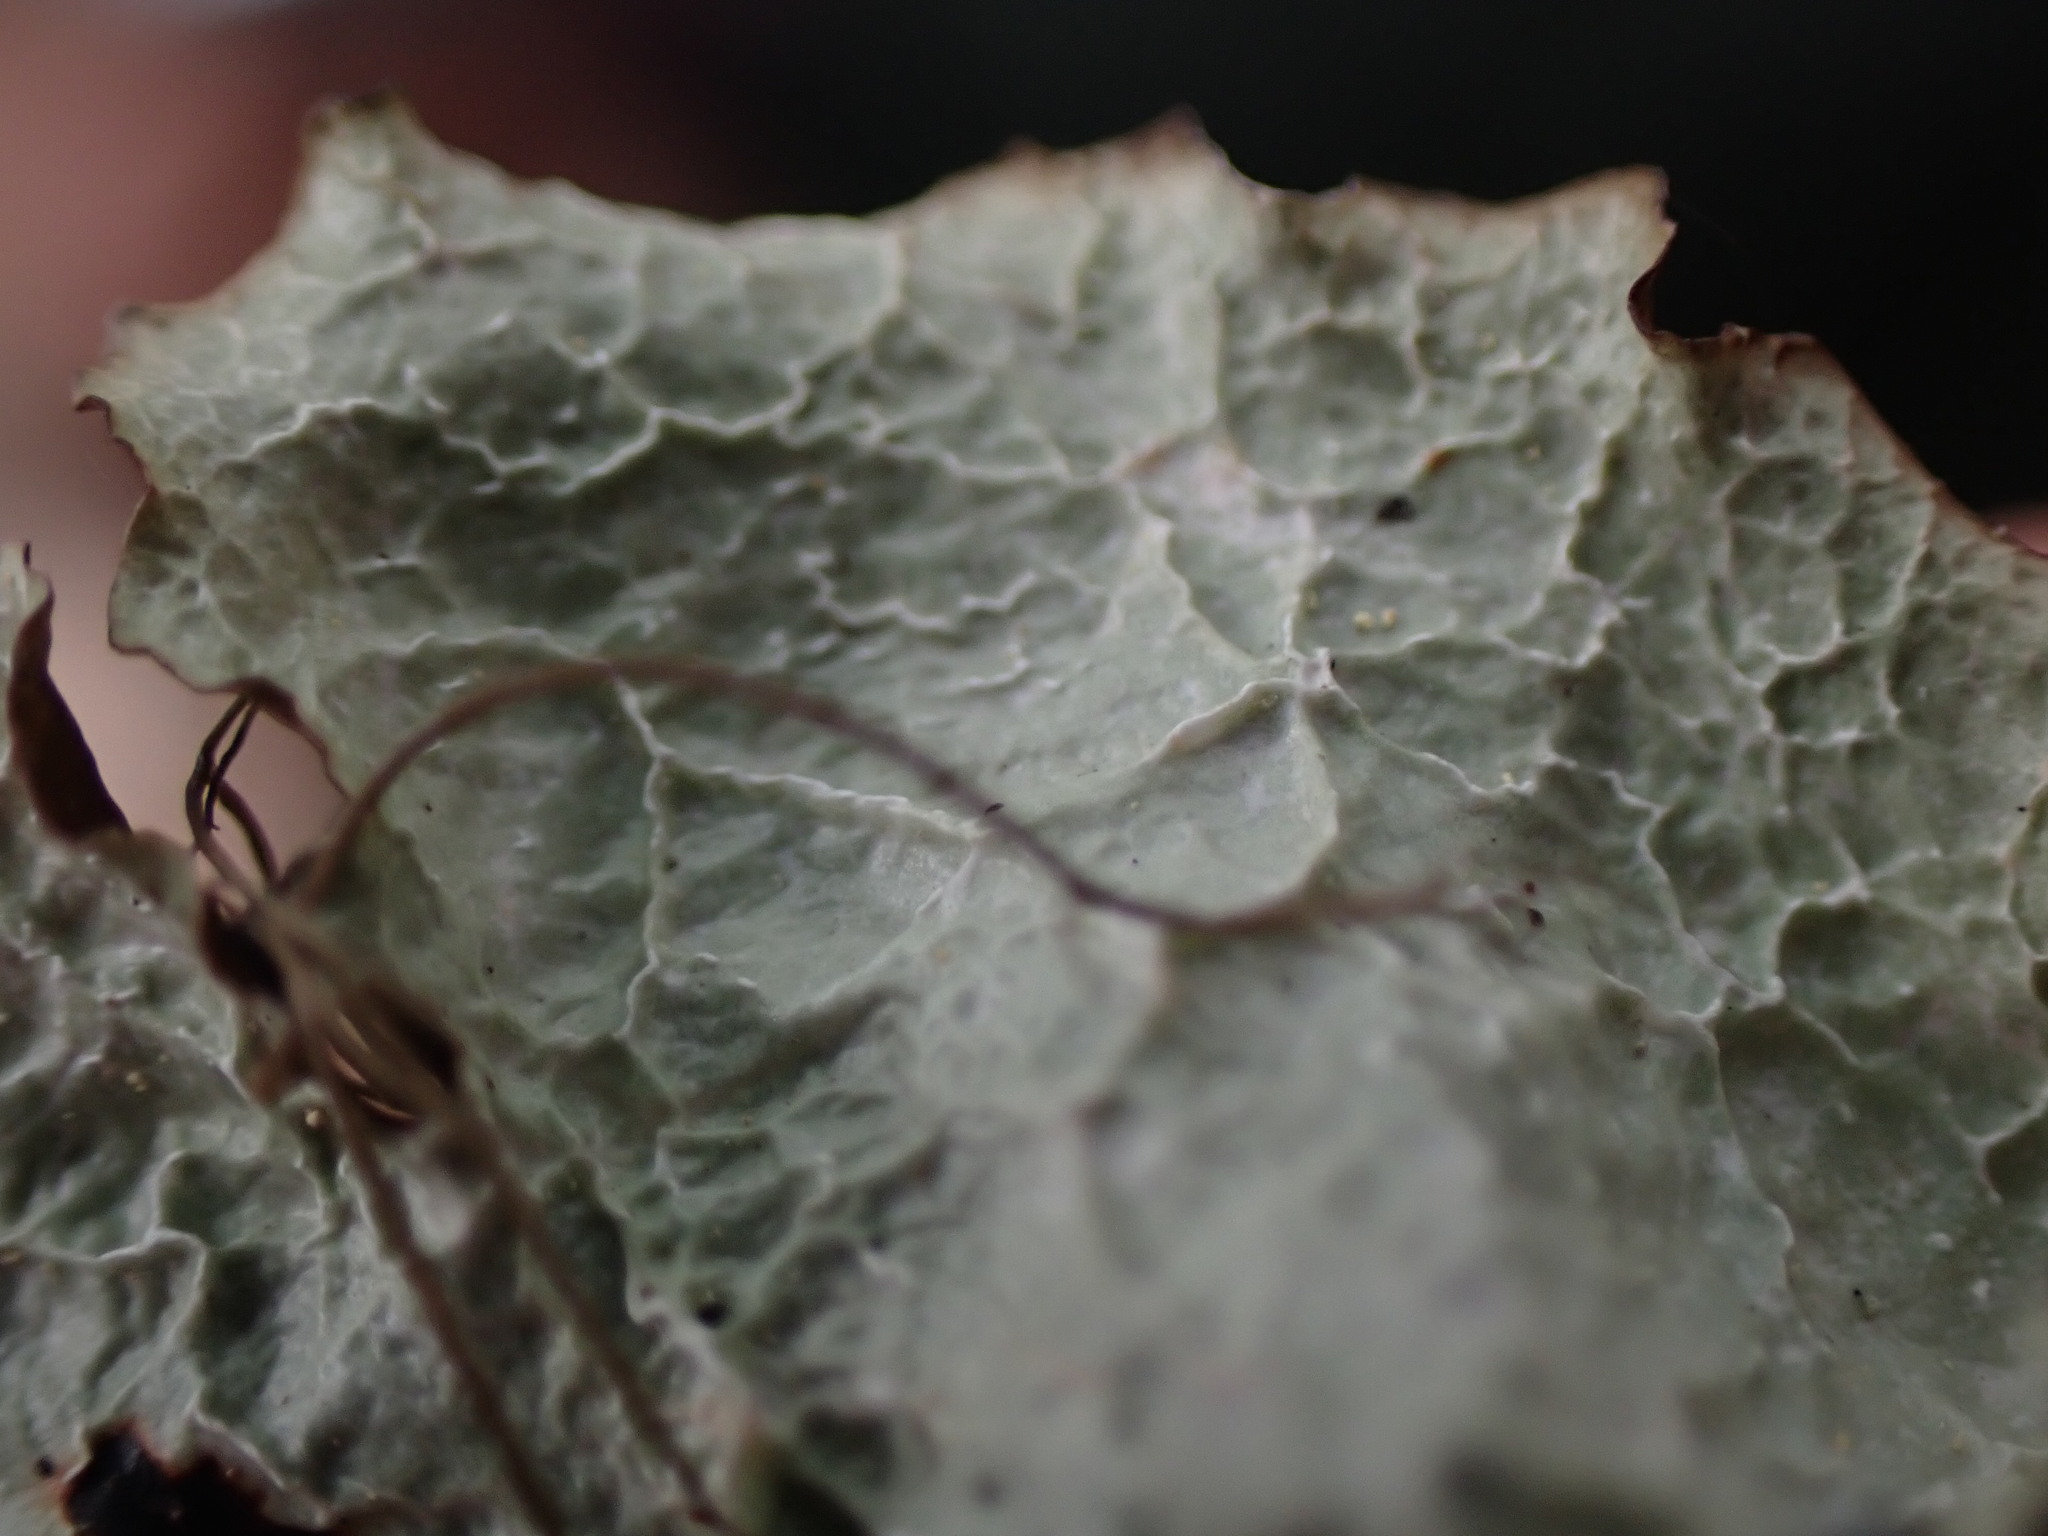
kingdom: Fungi
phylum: Ascomycota
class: Lecanoromycetes
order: Lecanorales
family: Parmeliaceae
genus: Platismatia
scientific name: Platismatia norvegica
